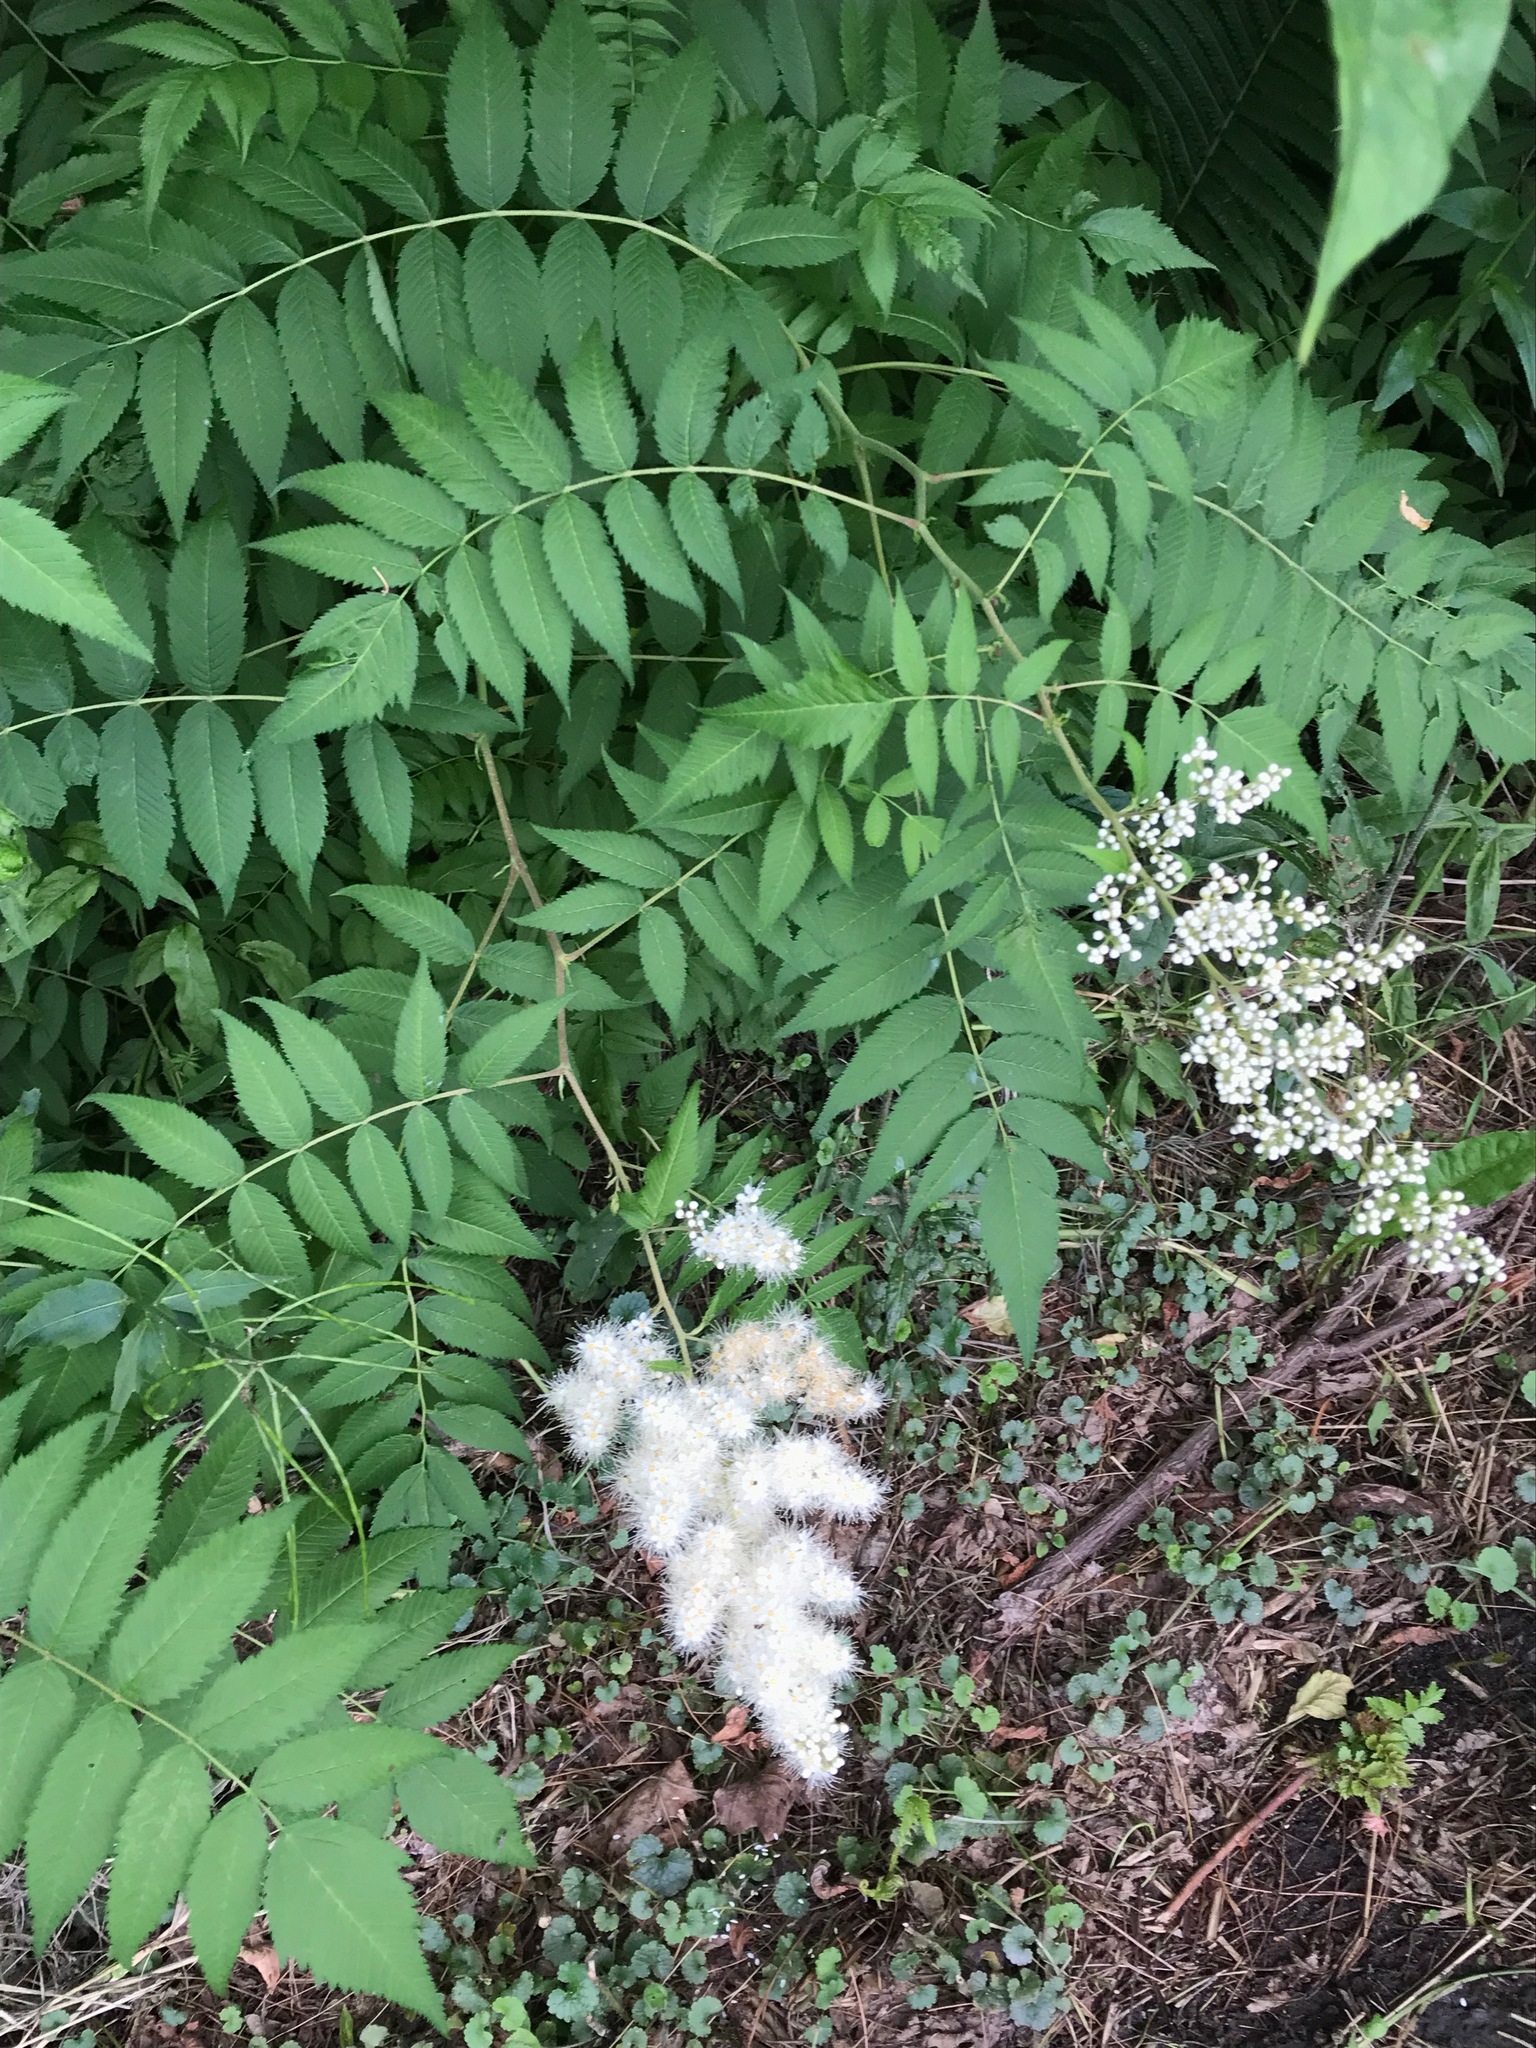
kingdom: Plantae
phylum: Tracheophyta
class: Magnoliopsida
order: Rosales
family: Rosaceae
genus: Sorbaria
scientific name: Sorbaria sorbifolia
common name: False spiraea
